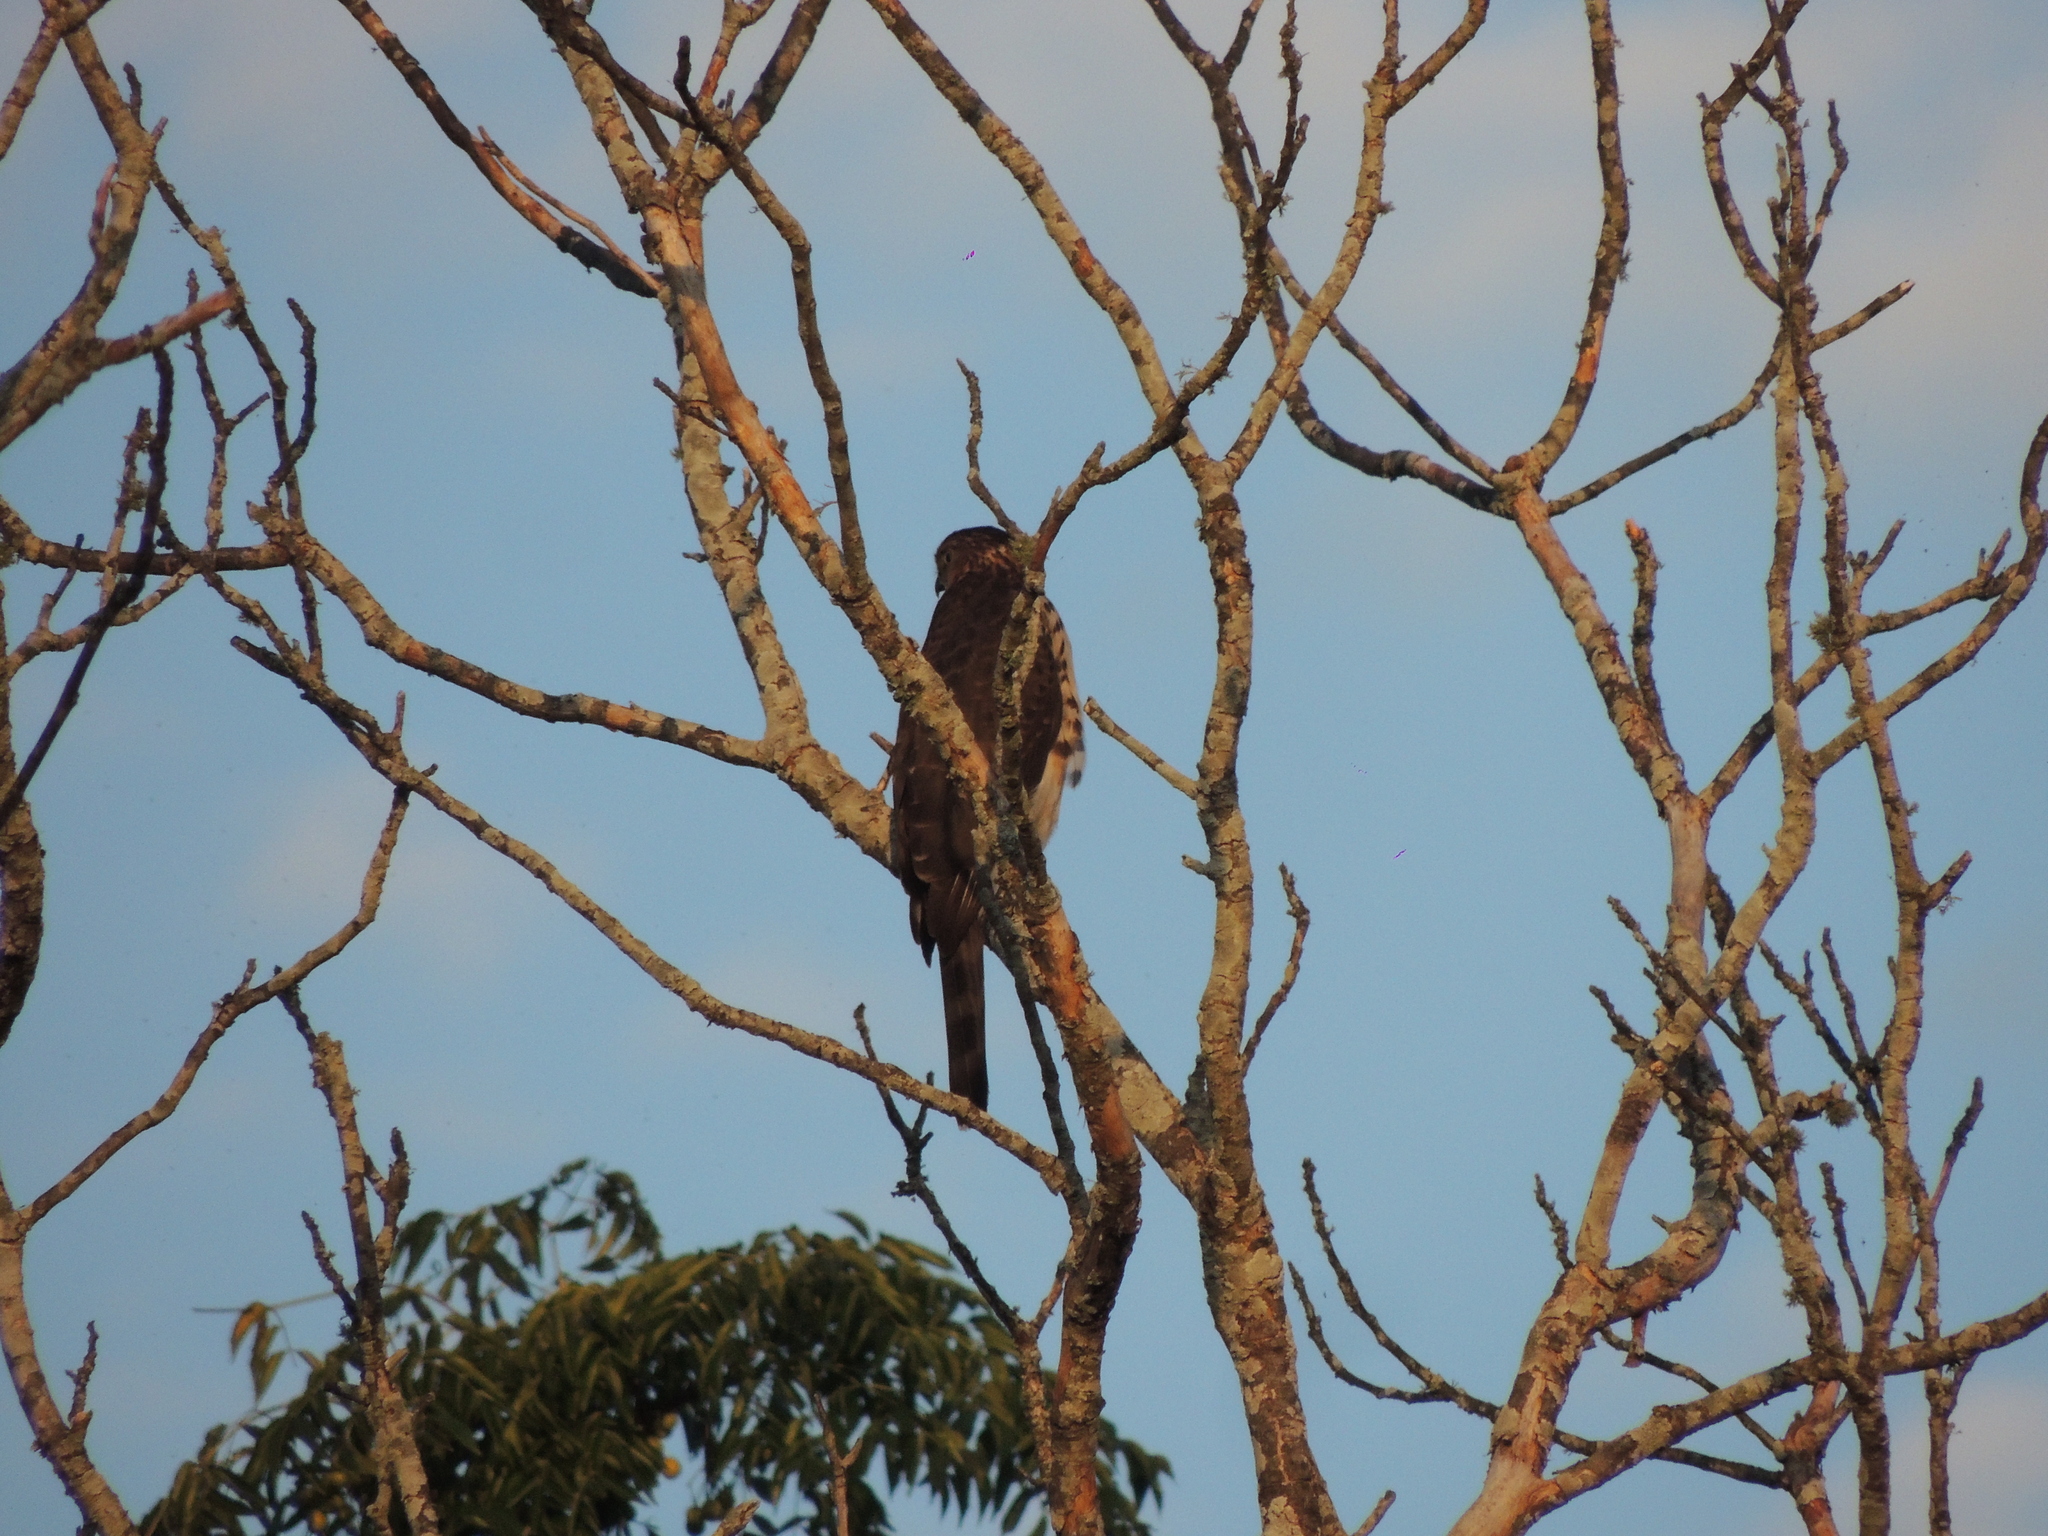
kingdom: Animalia
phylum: Chordata
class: Aves
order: Accipitriformes
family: Accipitridae
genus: Accipiter
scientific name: Accipiter bicolor
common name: Bicolored hawk
